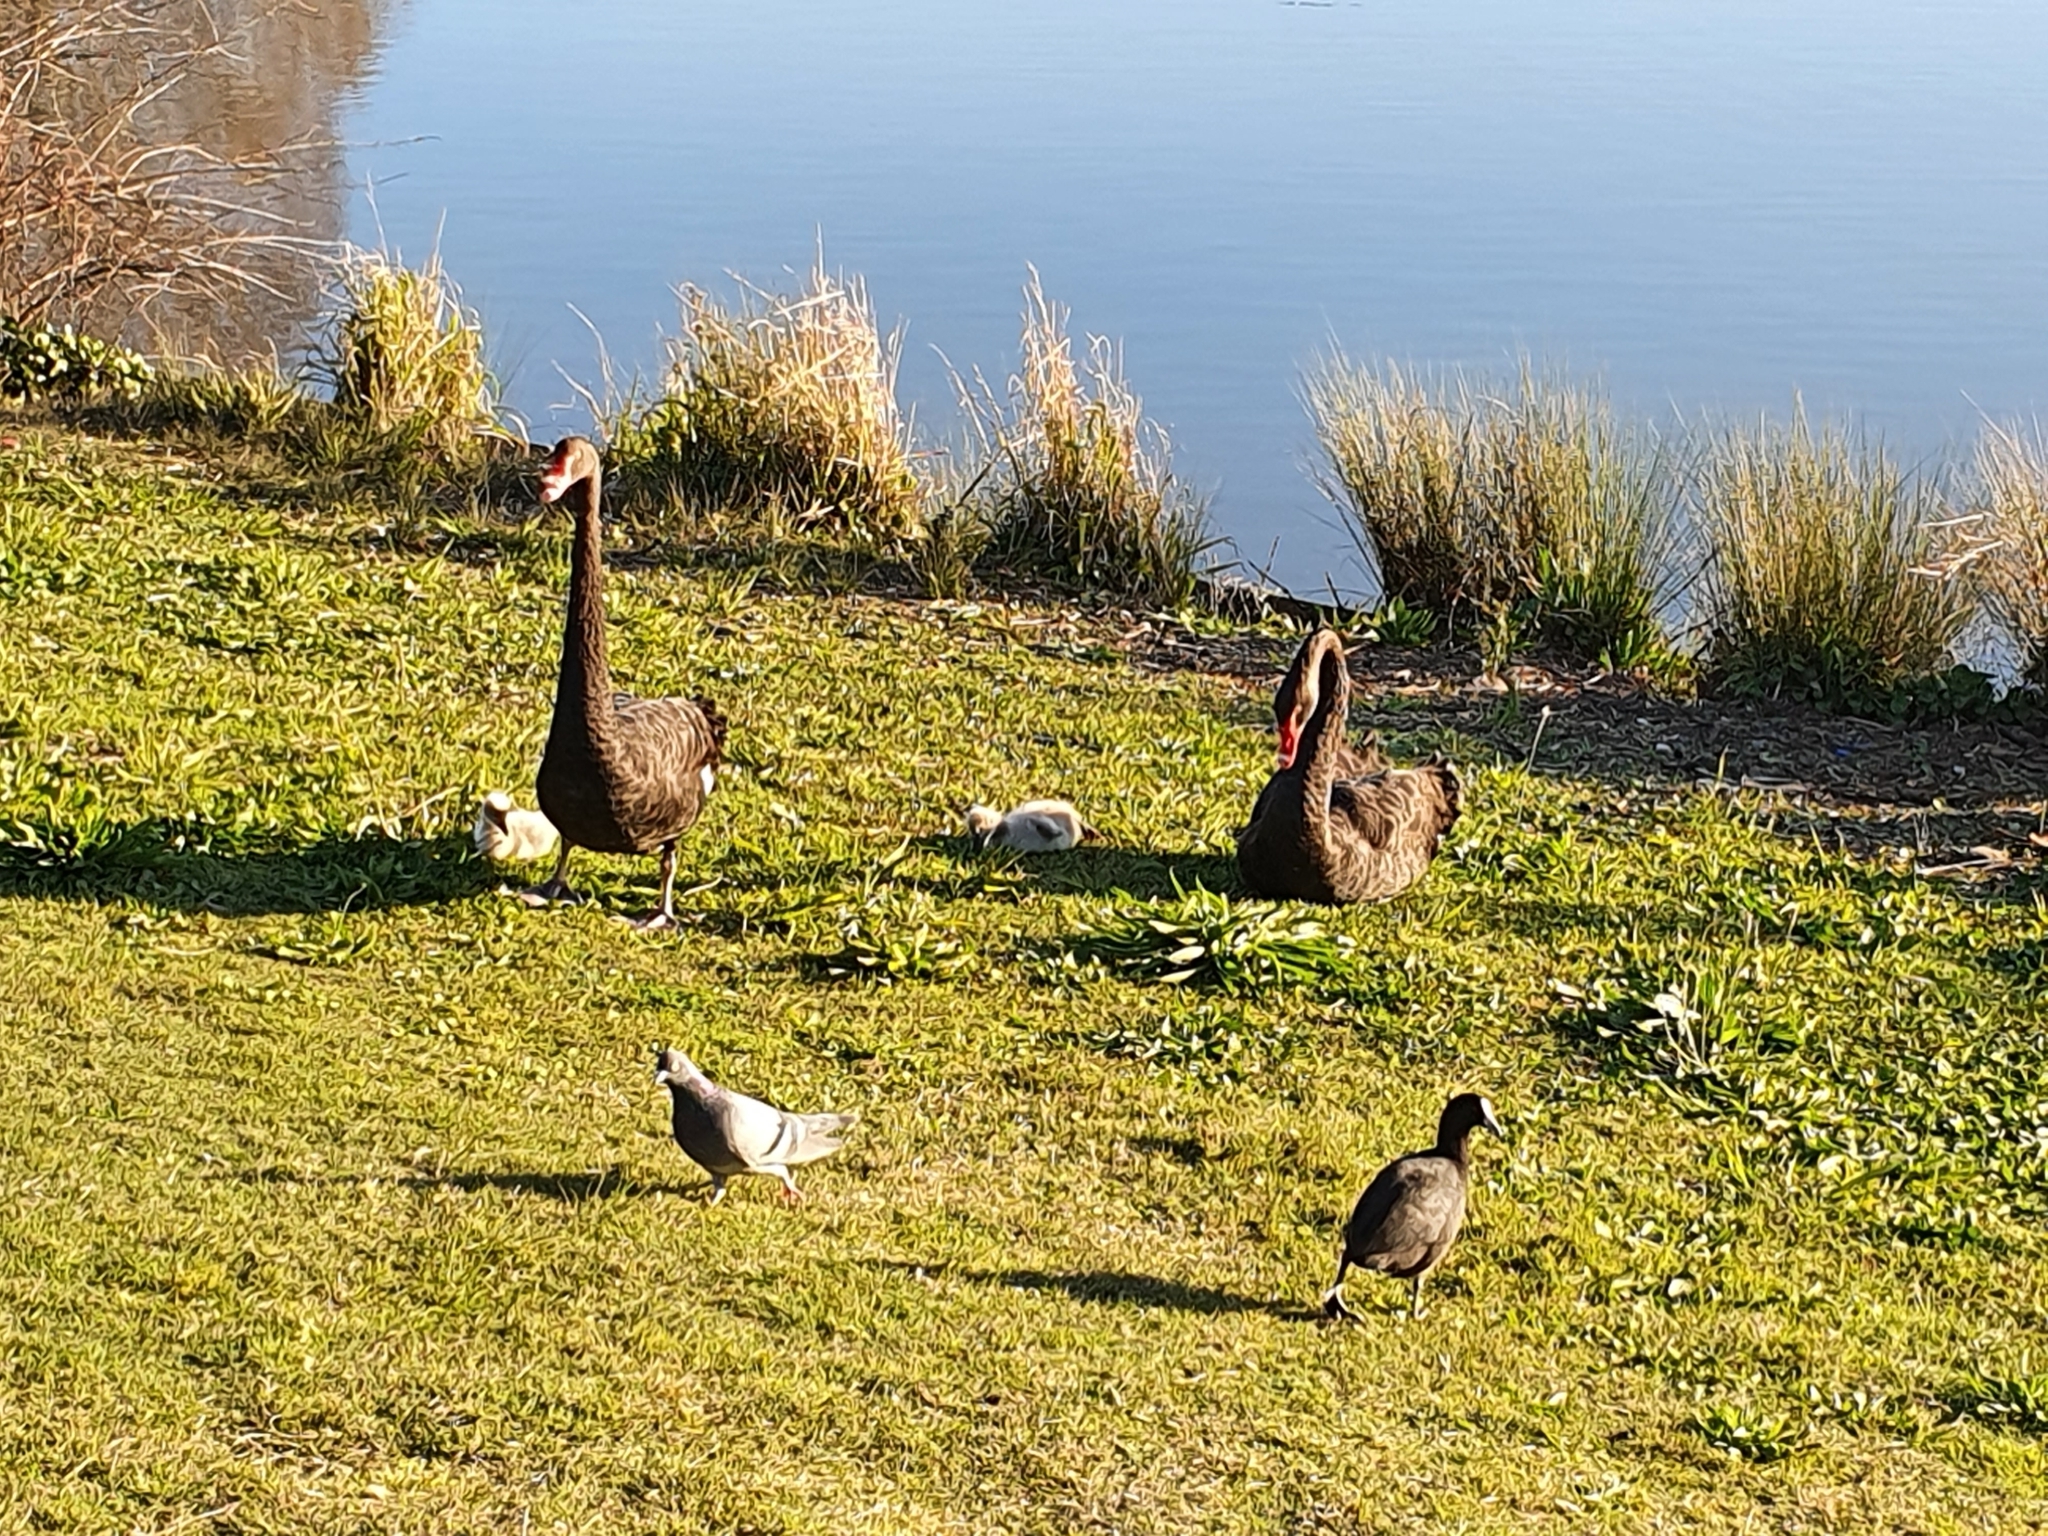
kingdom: Animalia
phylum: Chordata
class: Aves
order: Anseriformes
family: Anatidae
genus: Cygnus
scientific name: Cygnus atratus
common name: Black swan
